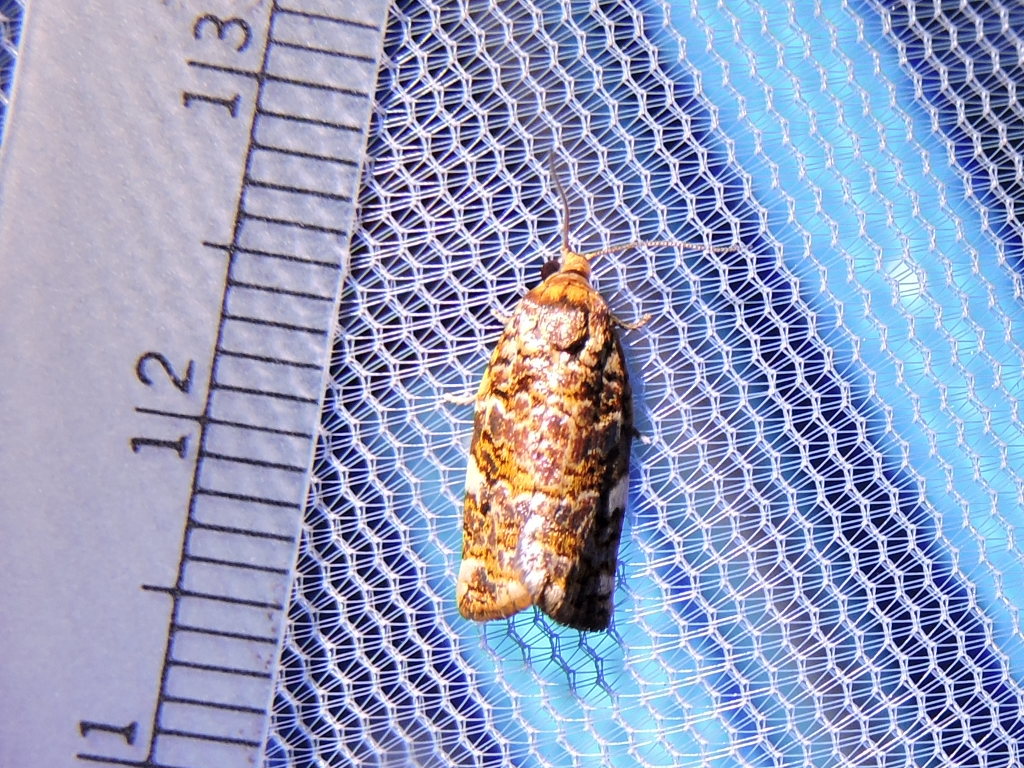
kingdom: Animalia
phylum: Arthropoda
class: Insecta
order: Lepidoptera
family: Tortricidae
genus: Archips
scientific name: Archips argyrospila
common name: Fruit-tree leafroller moth
